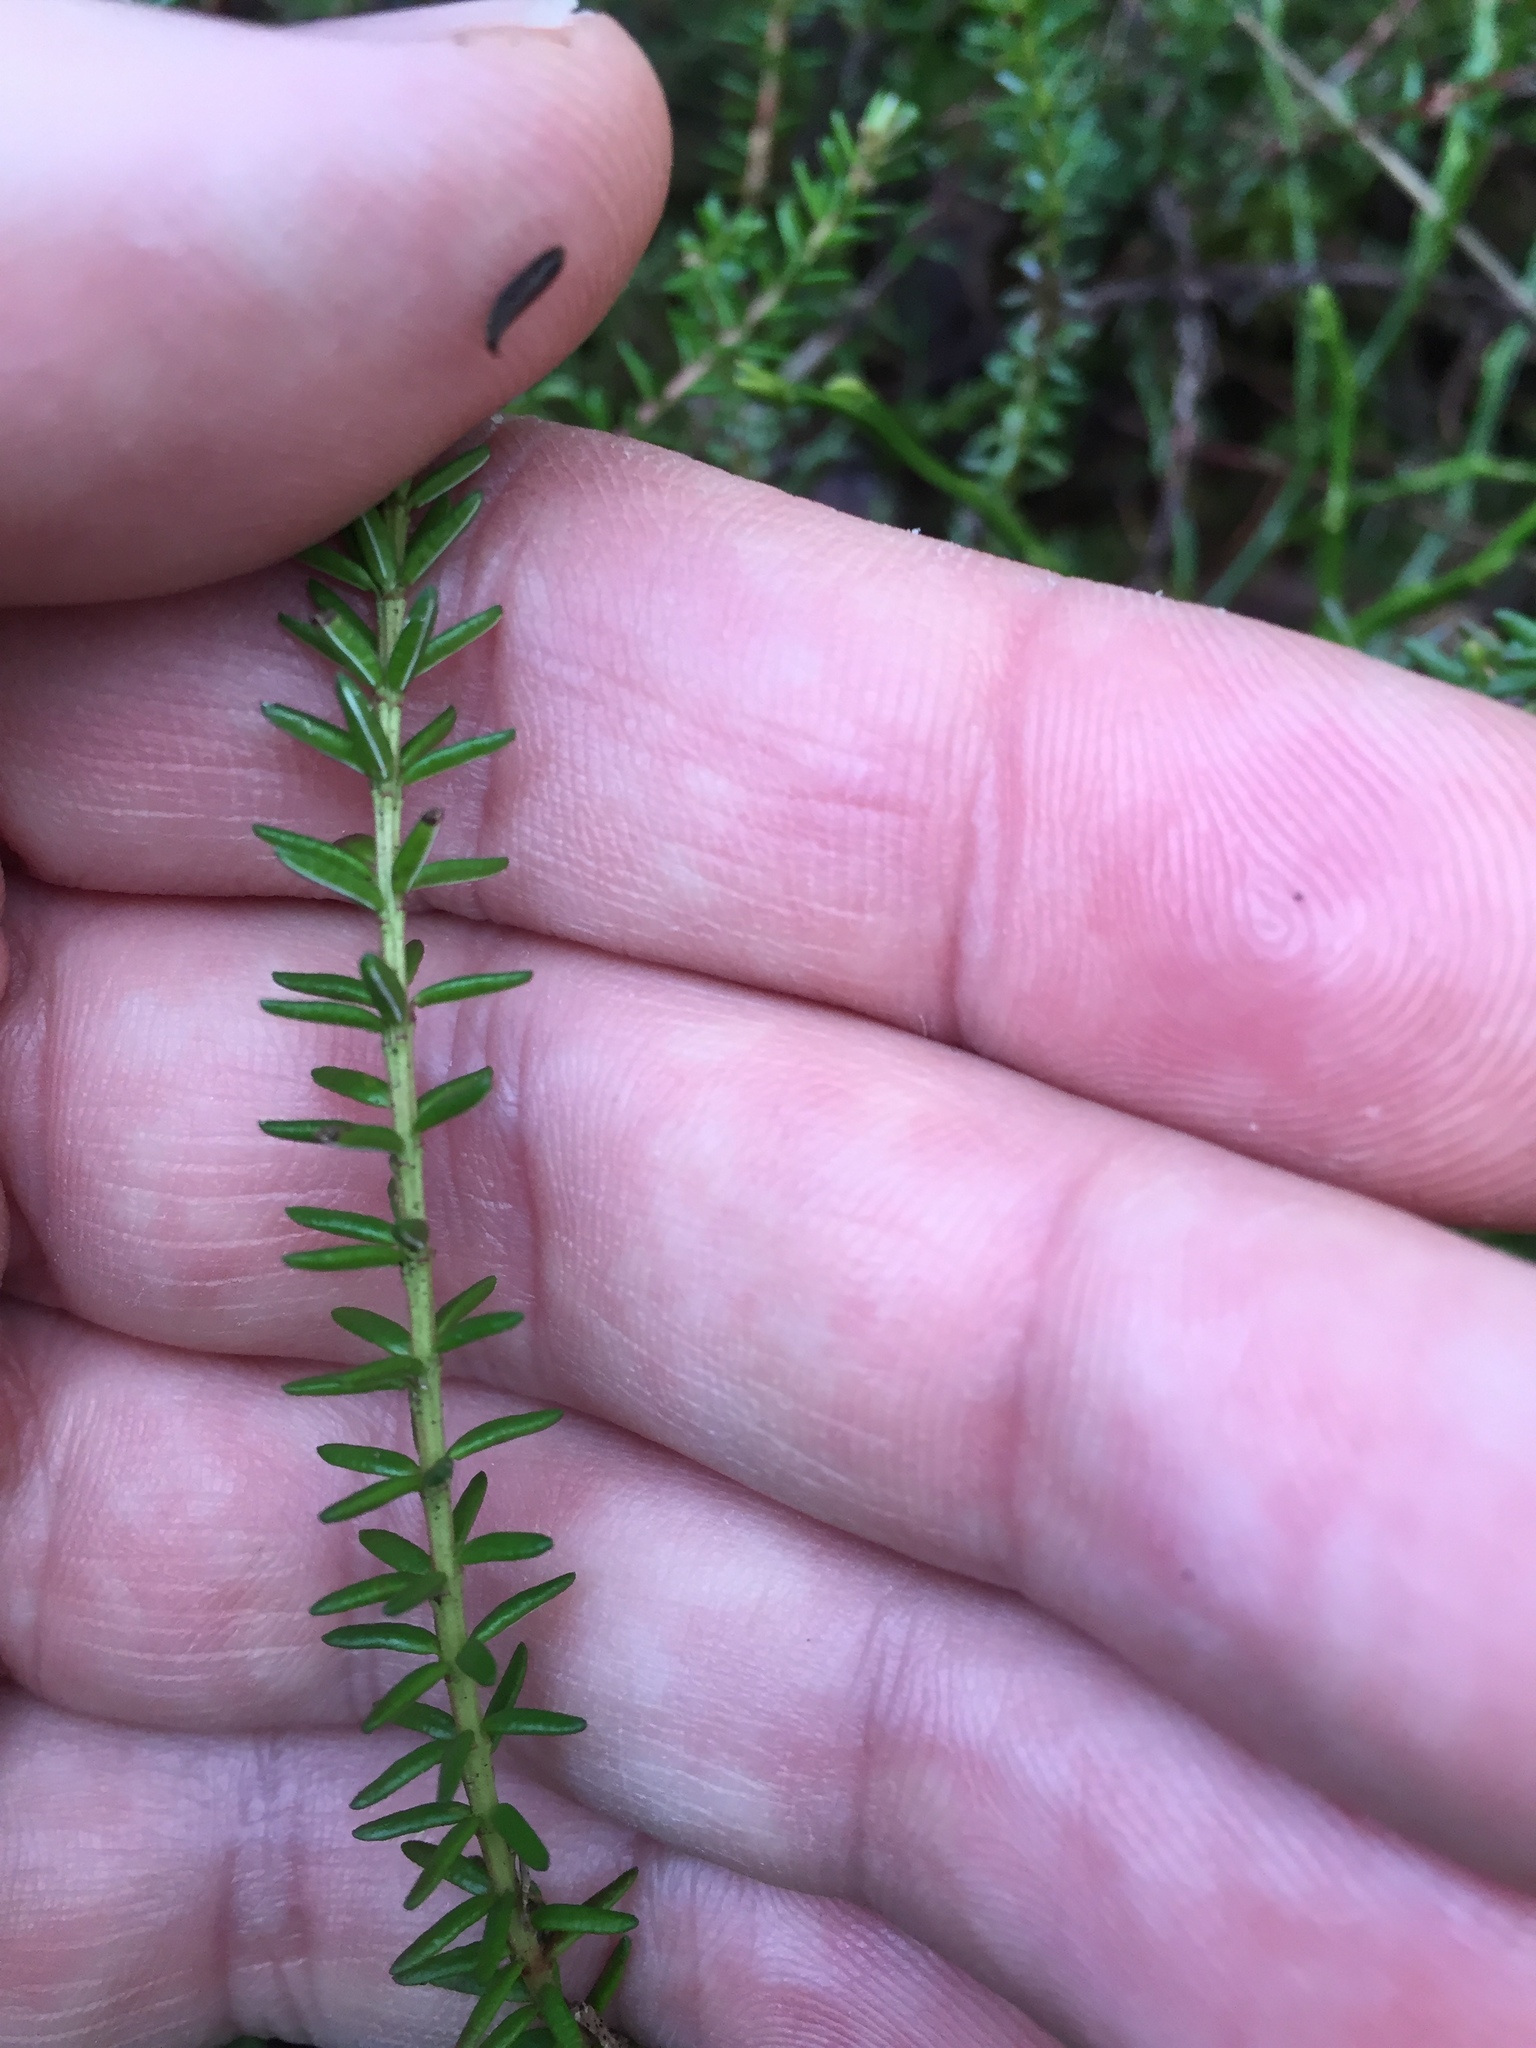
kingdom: Plantae
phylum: Tracheophyta
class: Magnoliopsida
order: Ericales
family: Ericaceae
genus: Empetrum
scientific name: Empetrum nigrum
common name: Black crowberry
